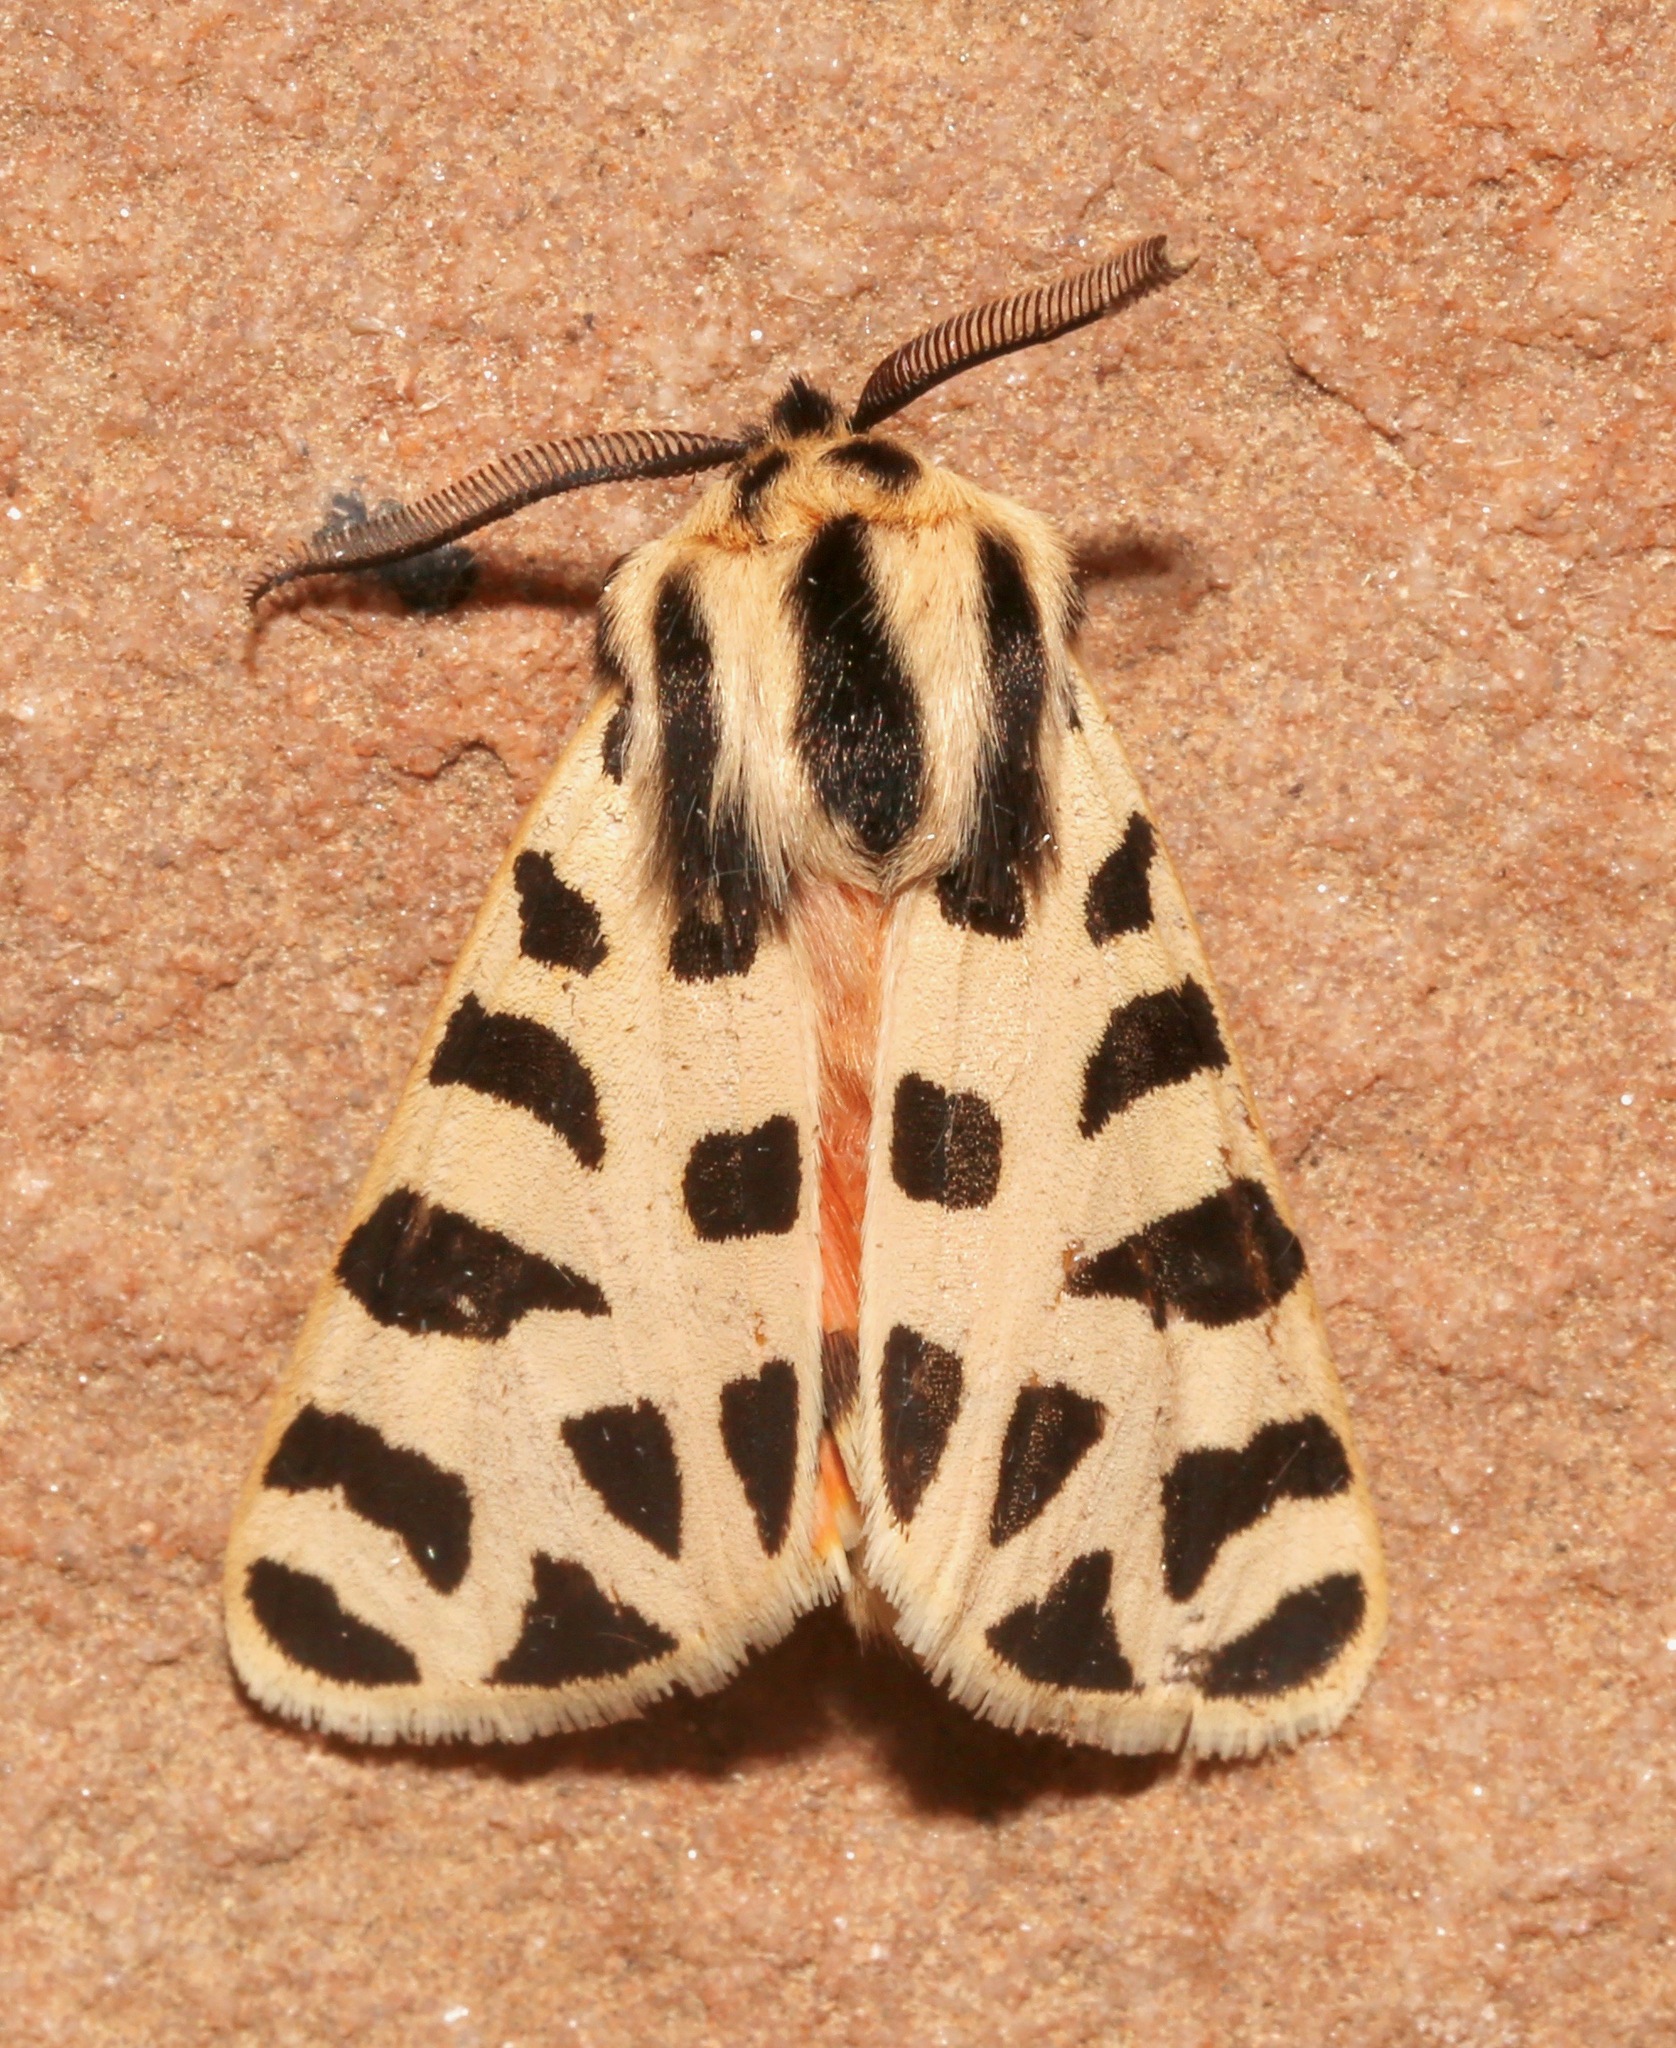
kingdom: Animalia
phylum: Arthropoda
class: Insecta
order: Lepidoptera
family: Erebidae
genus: Apantesis
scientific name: Apantesis incorrupta
